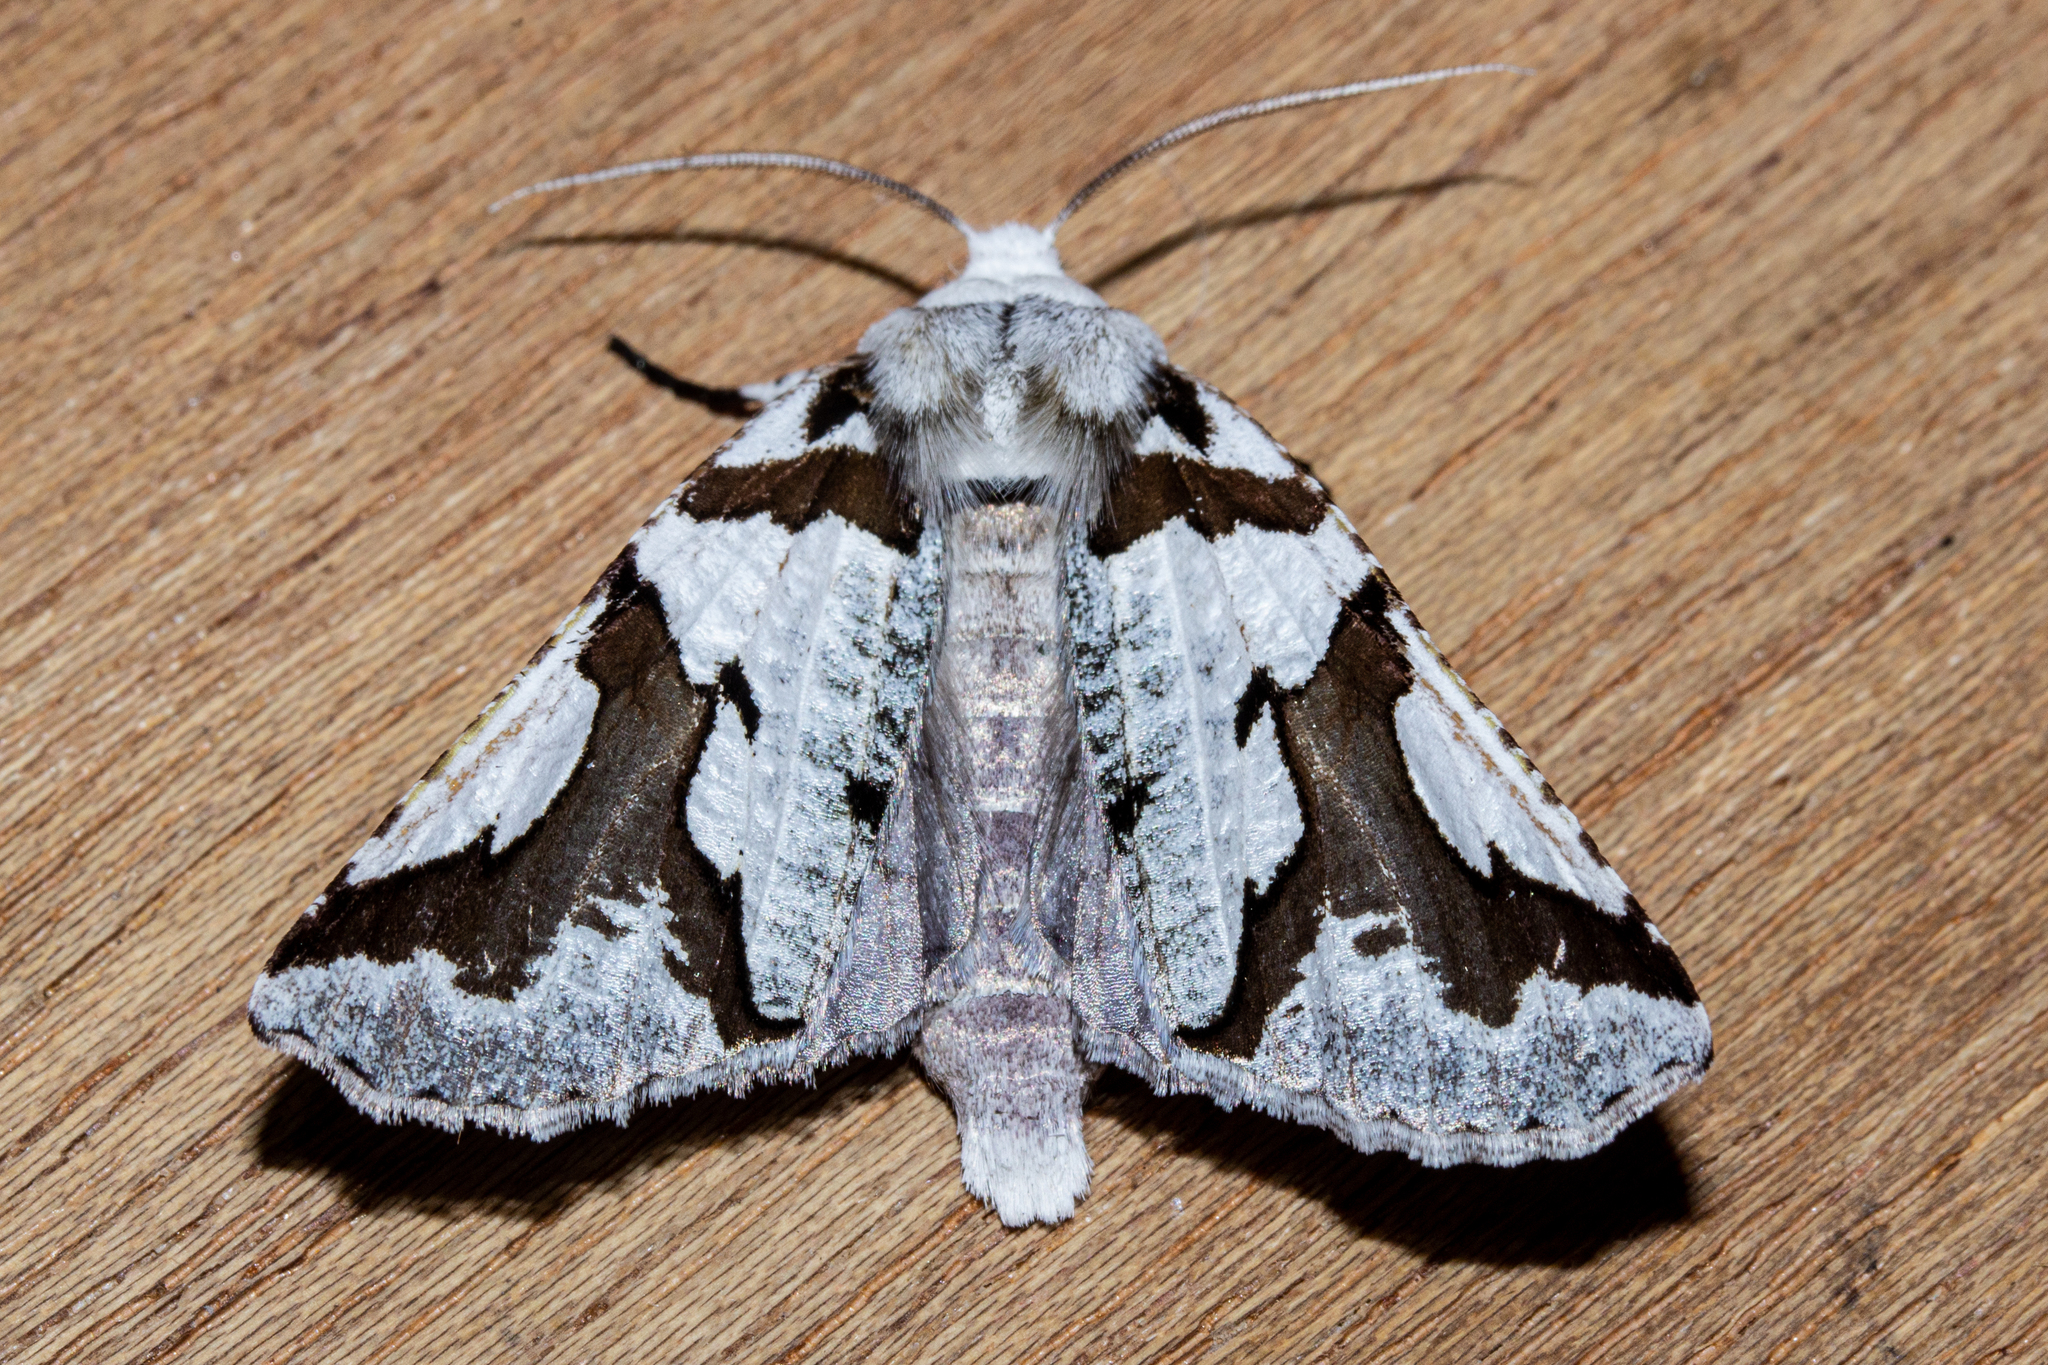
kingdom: Animalia
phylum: Arthropoda
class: Insecta
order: Lepidoptera
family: Geometridae
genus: Declana
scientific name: Declana
